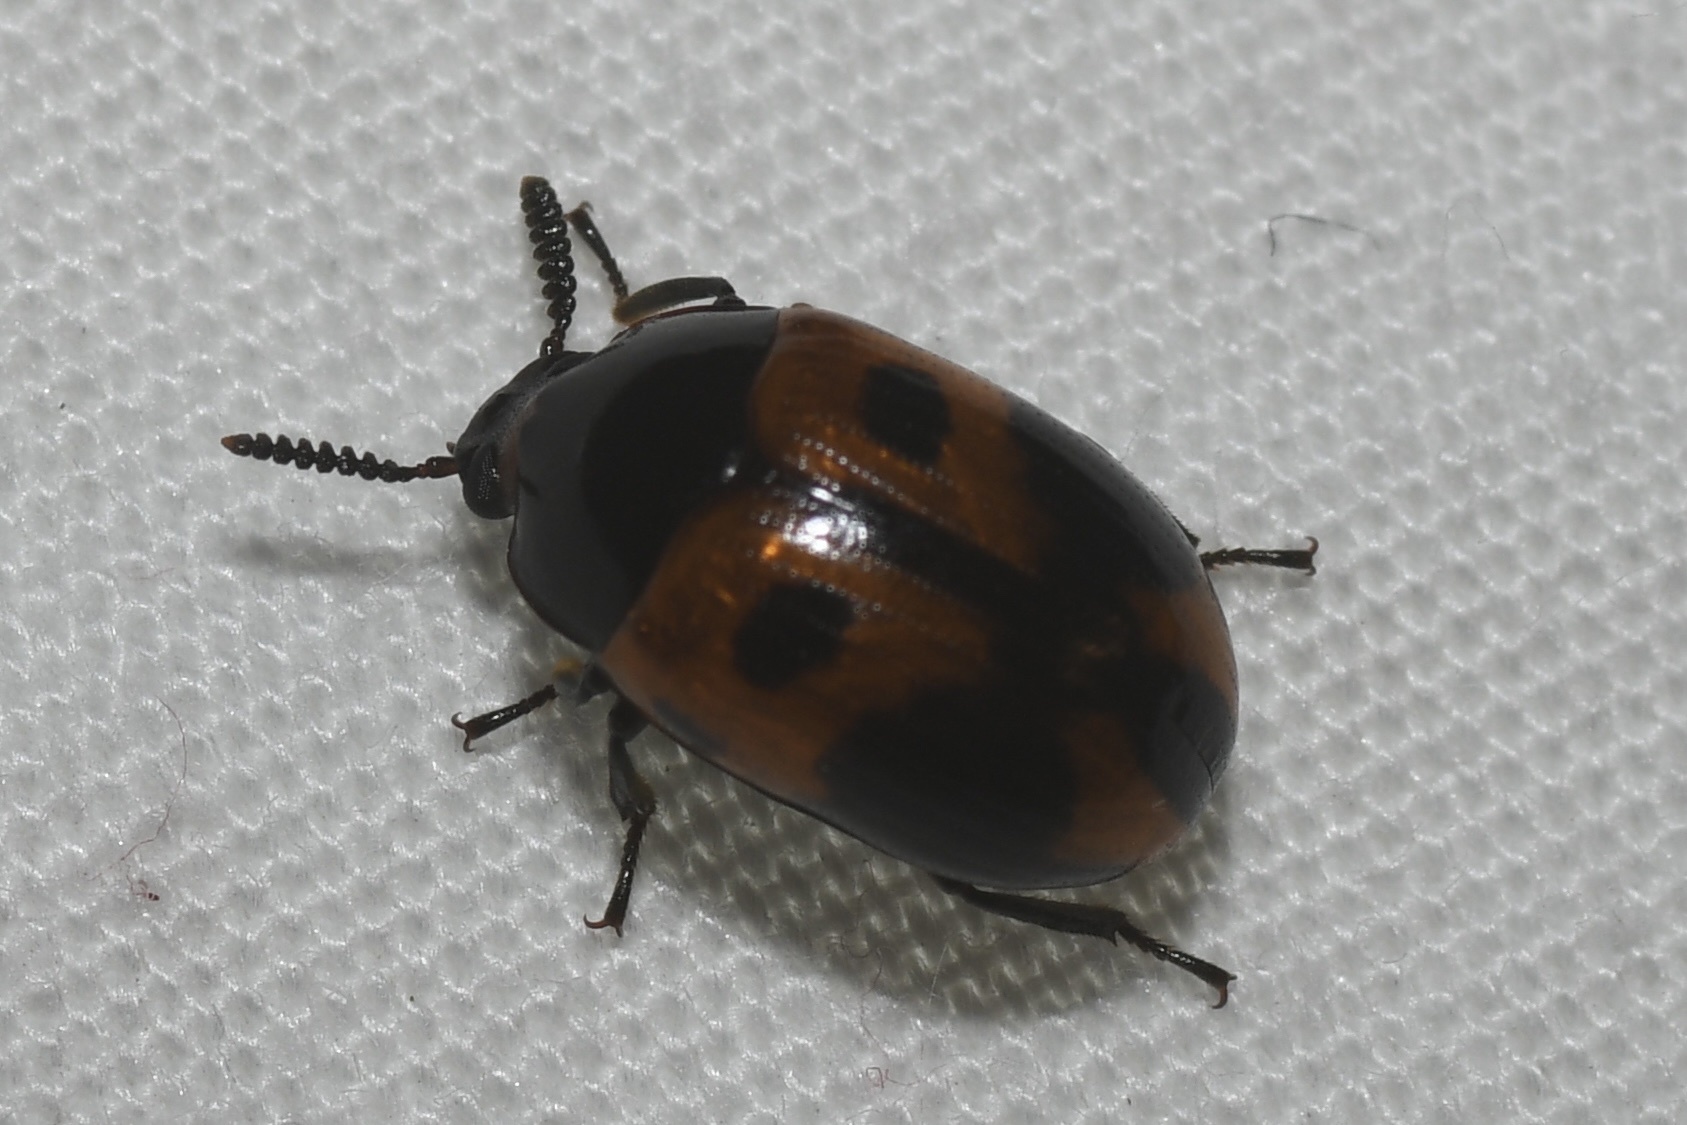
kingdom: Animalia
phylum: Arthropoda
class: Insecta
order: Coleoptera
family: Tenebrionidae
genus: Diaperis
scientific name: Diaperis maculata
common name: Darkling beetle
